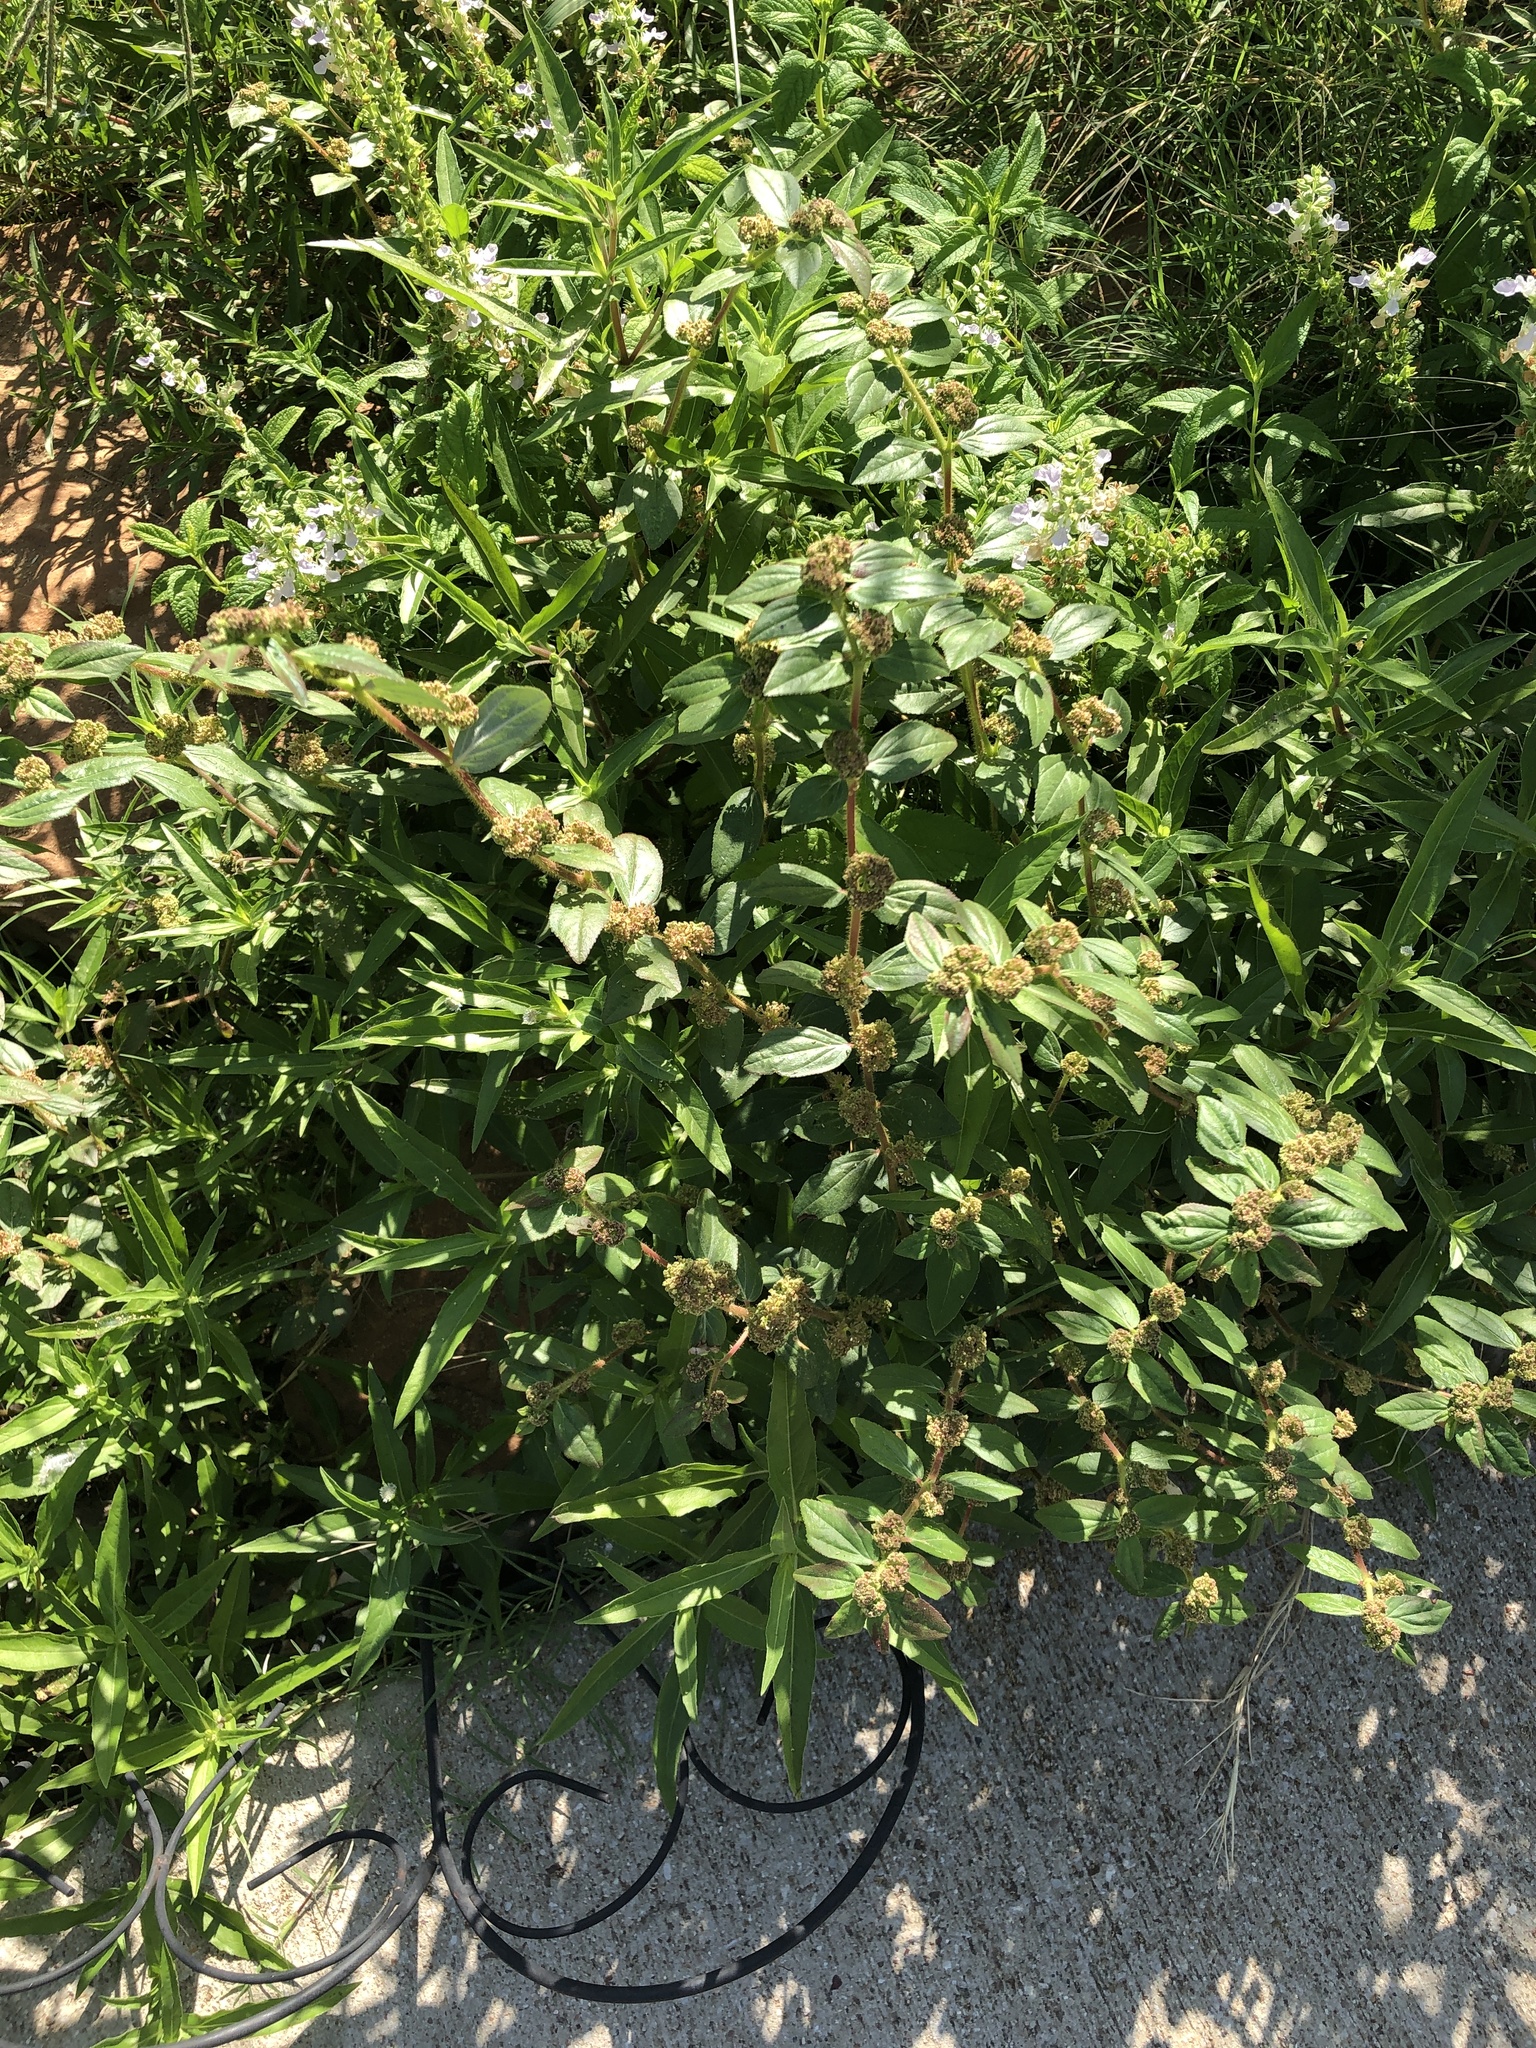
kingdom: Plantae
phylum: Tracheophyta
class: Magnoliopsida
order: Malpighiales
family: Euphorbiaceae
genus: Euphorbia
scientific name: Euphorbia hirta
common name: Pillpod sandmat
